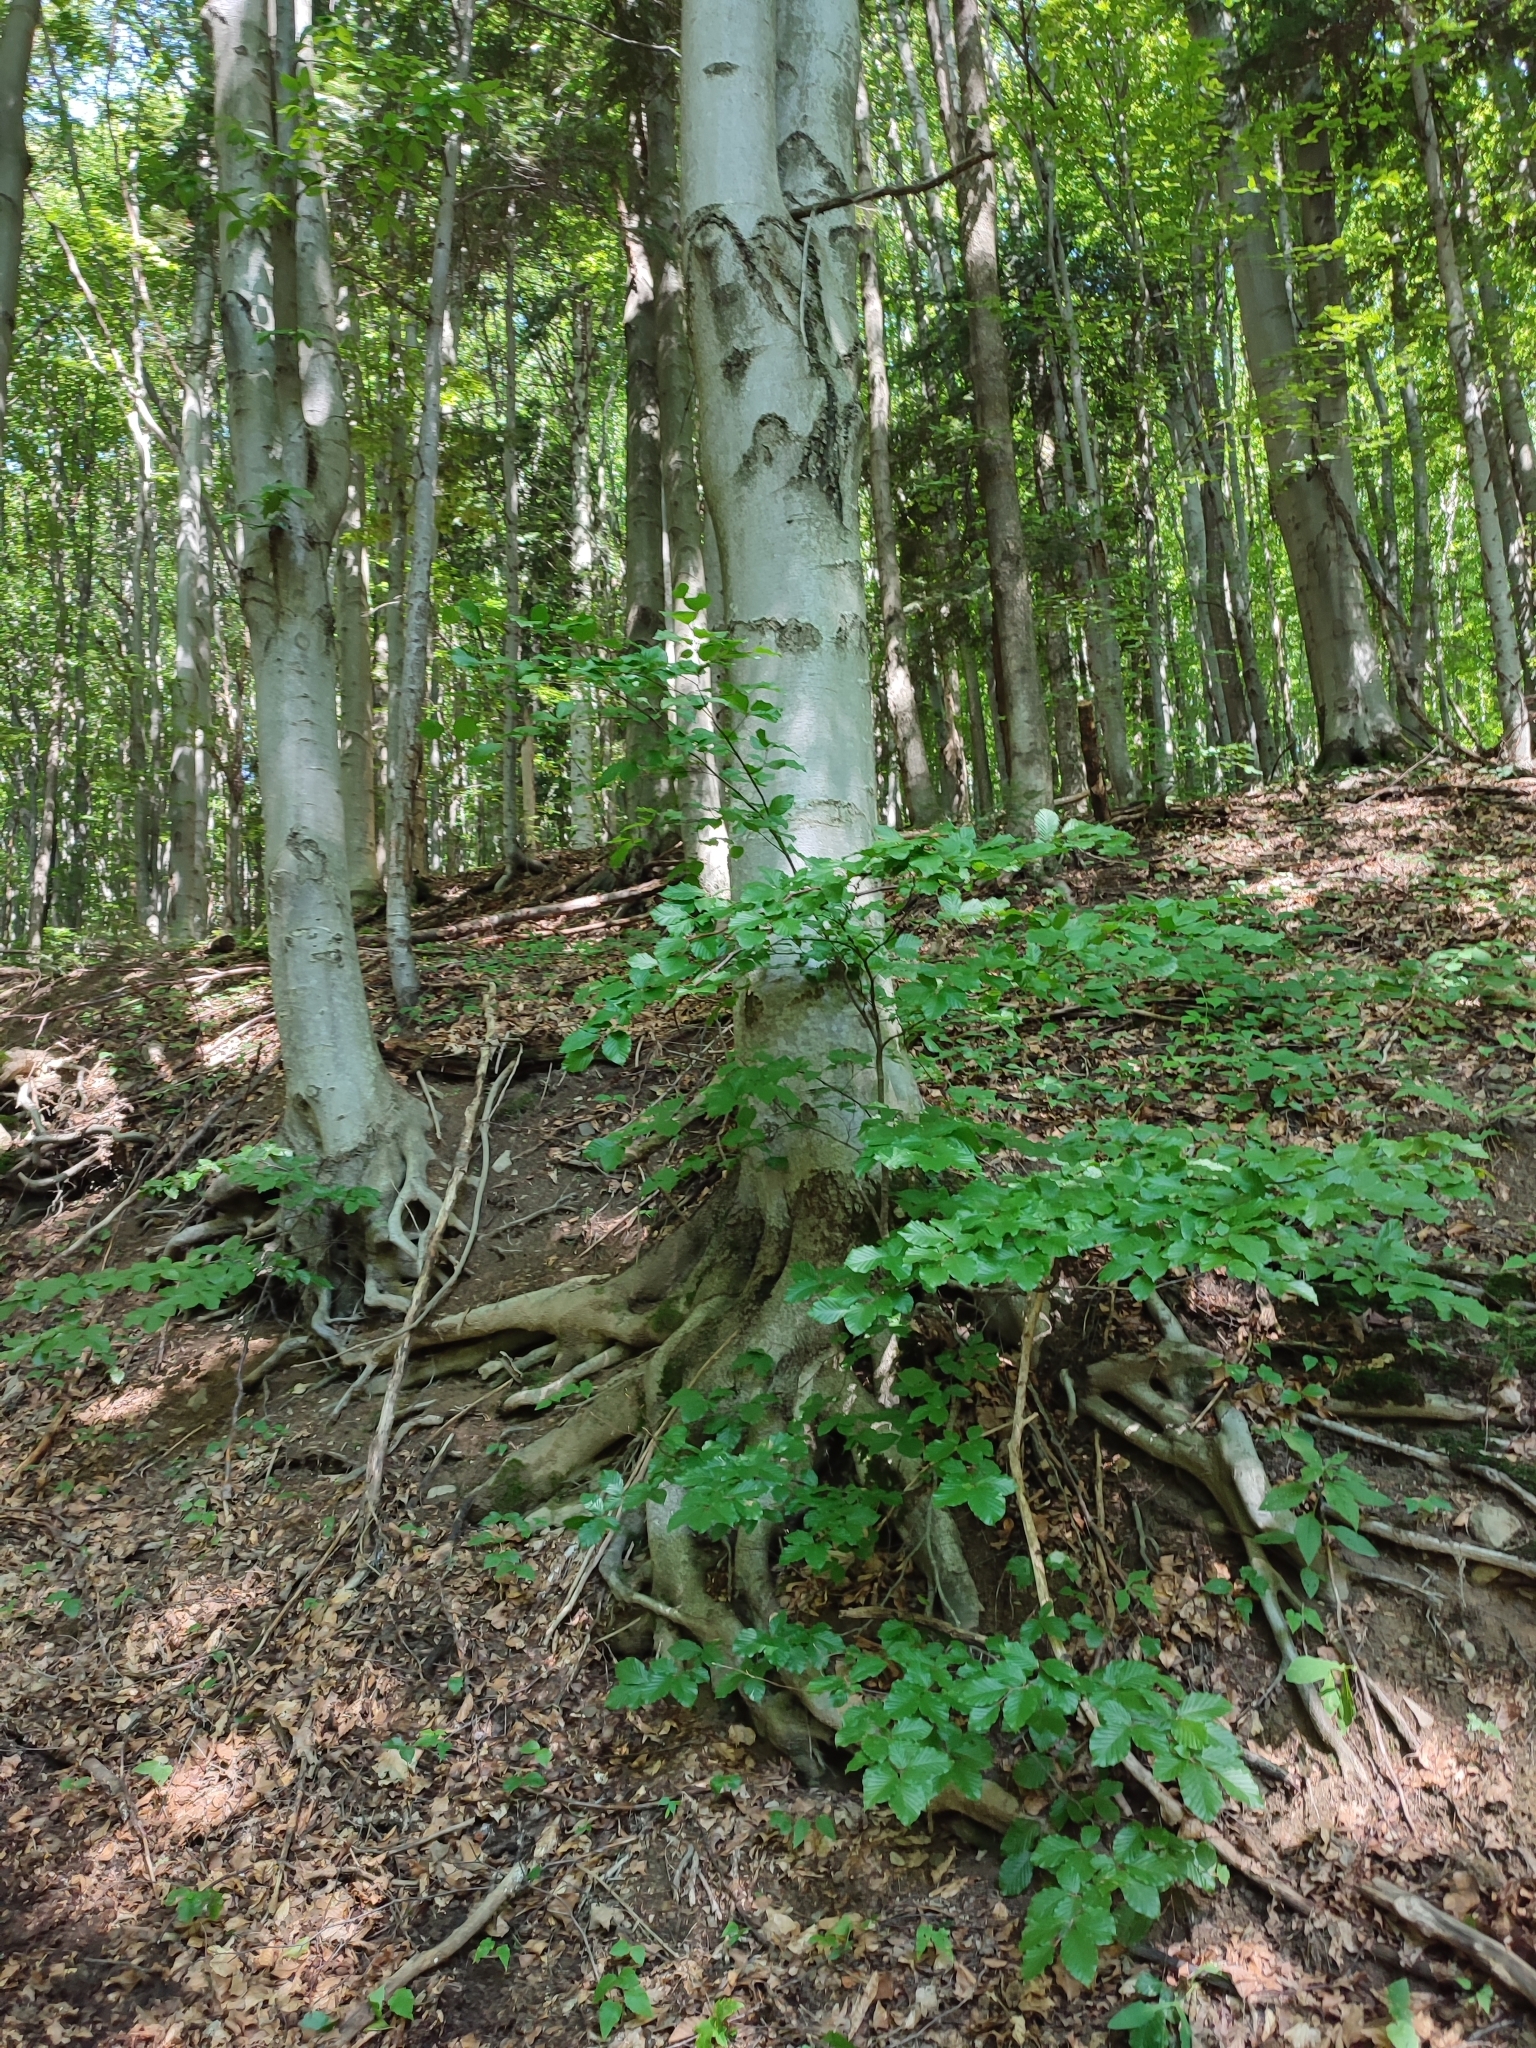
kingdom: Plantae
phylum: Tracheophyta
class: Magnoliopsida
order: Fagales
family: Fagaceae
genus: Fagus
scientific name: Fagus sylvatica
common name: Beech
